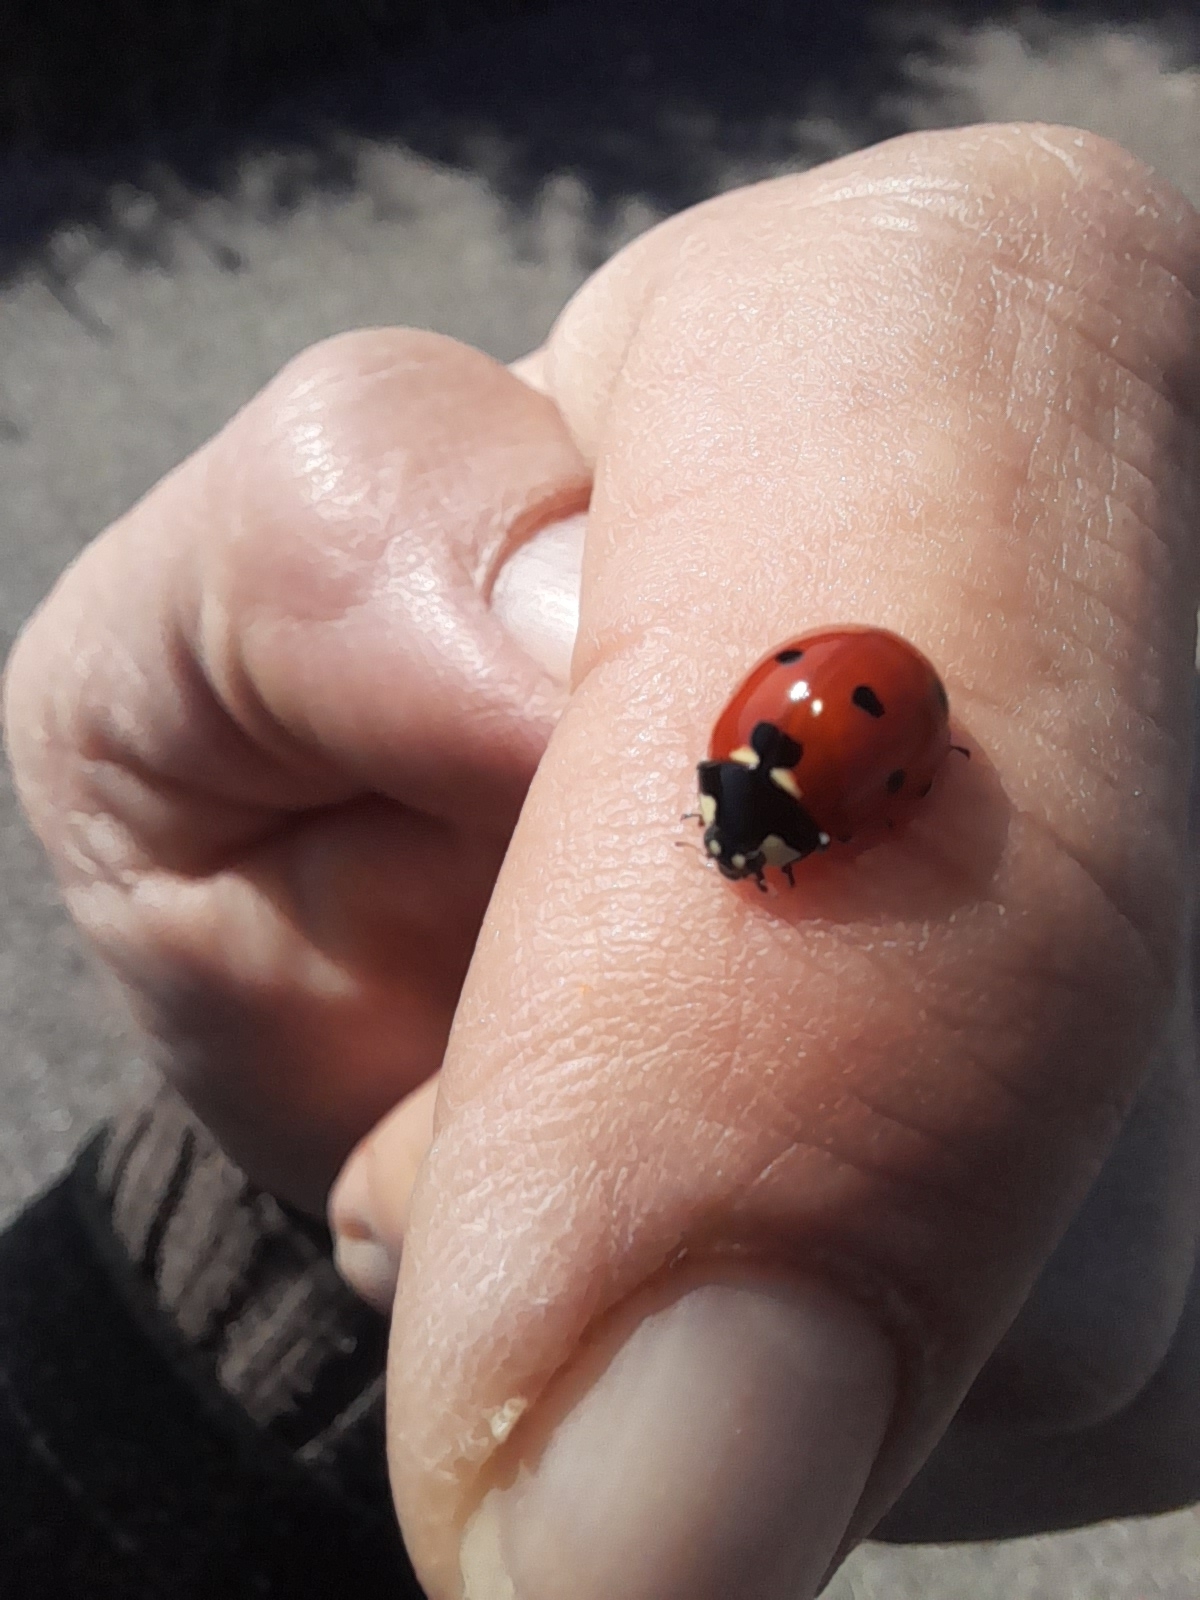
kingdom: Animalia
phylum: Arthropoda
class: Insecta
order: Coleoptera
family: Coccinellidae
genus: Coccinella
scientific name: Coccinella septempunctata
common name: Sevenspotted lady beetle
